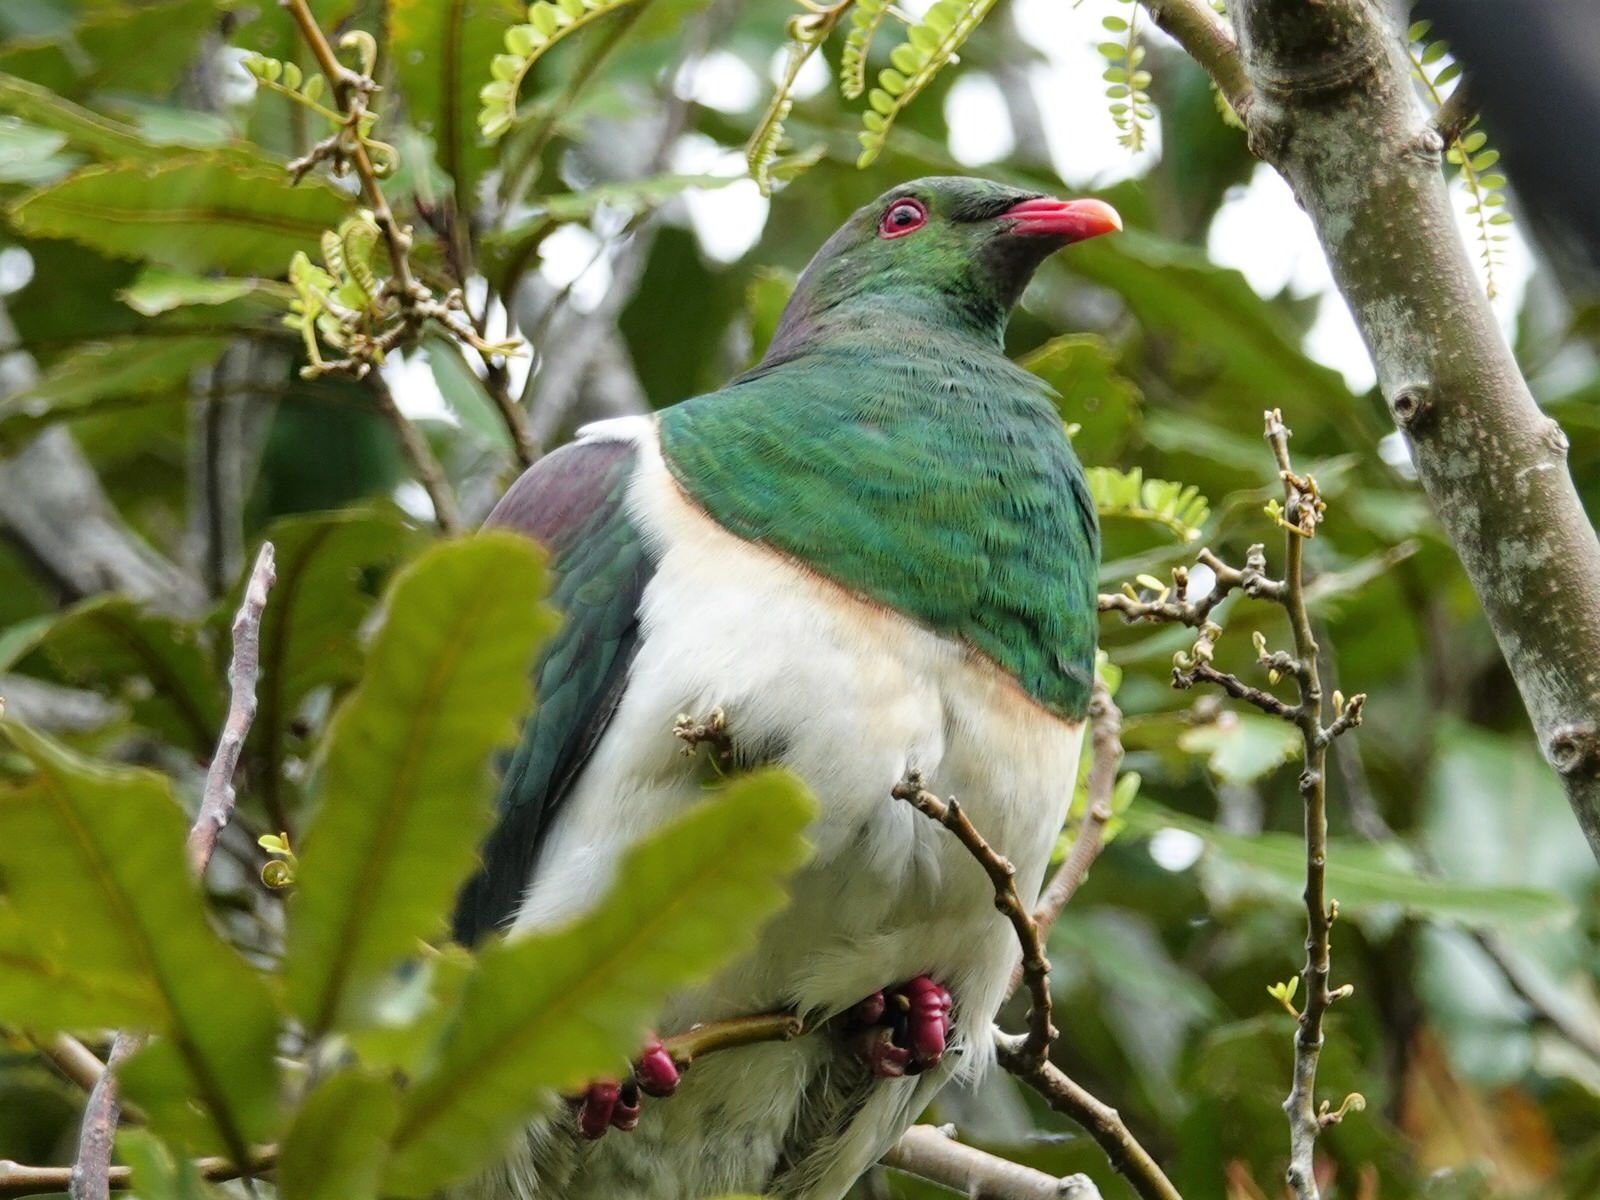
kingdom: Animalia
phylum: Chordata
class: Aves
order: Columbiformes
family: Columbidae
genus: Hemiphaga
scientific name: Hemiphaga novaeseelandiae
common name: New zealand pigeon
